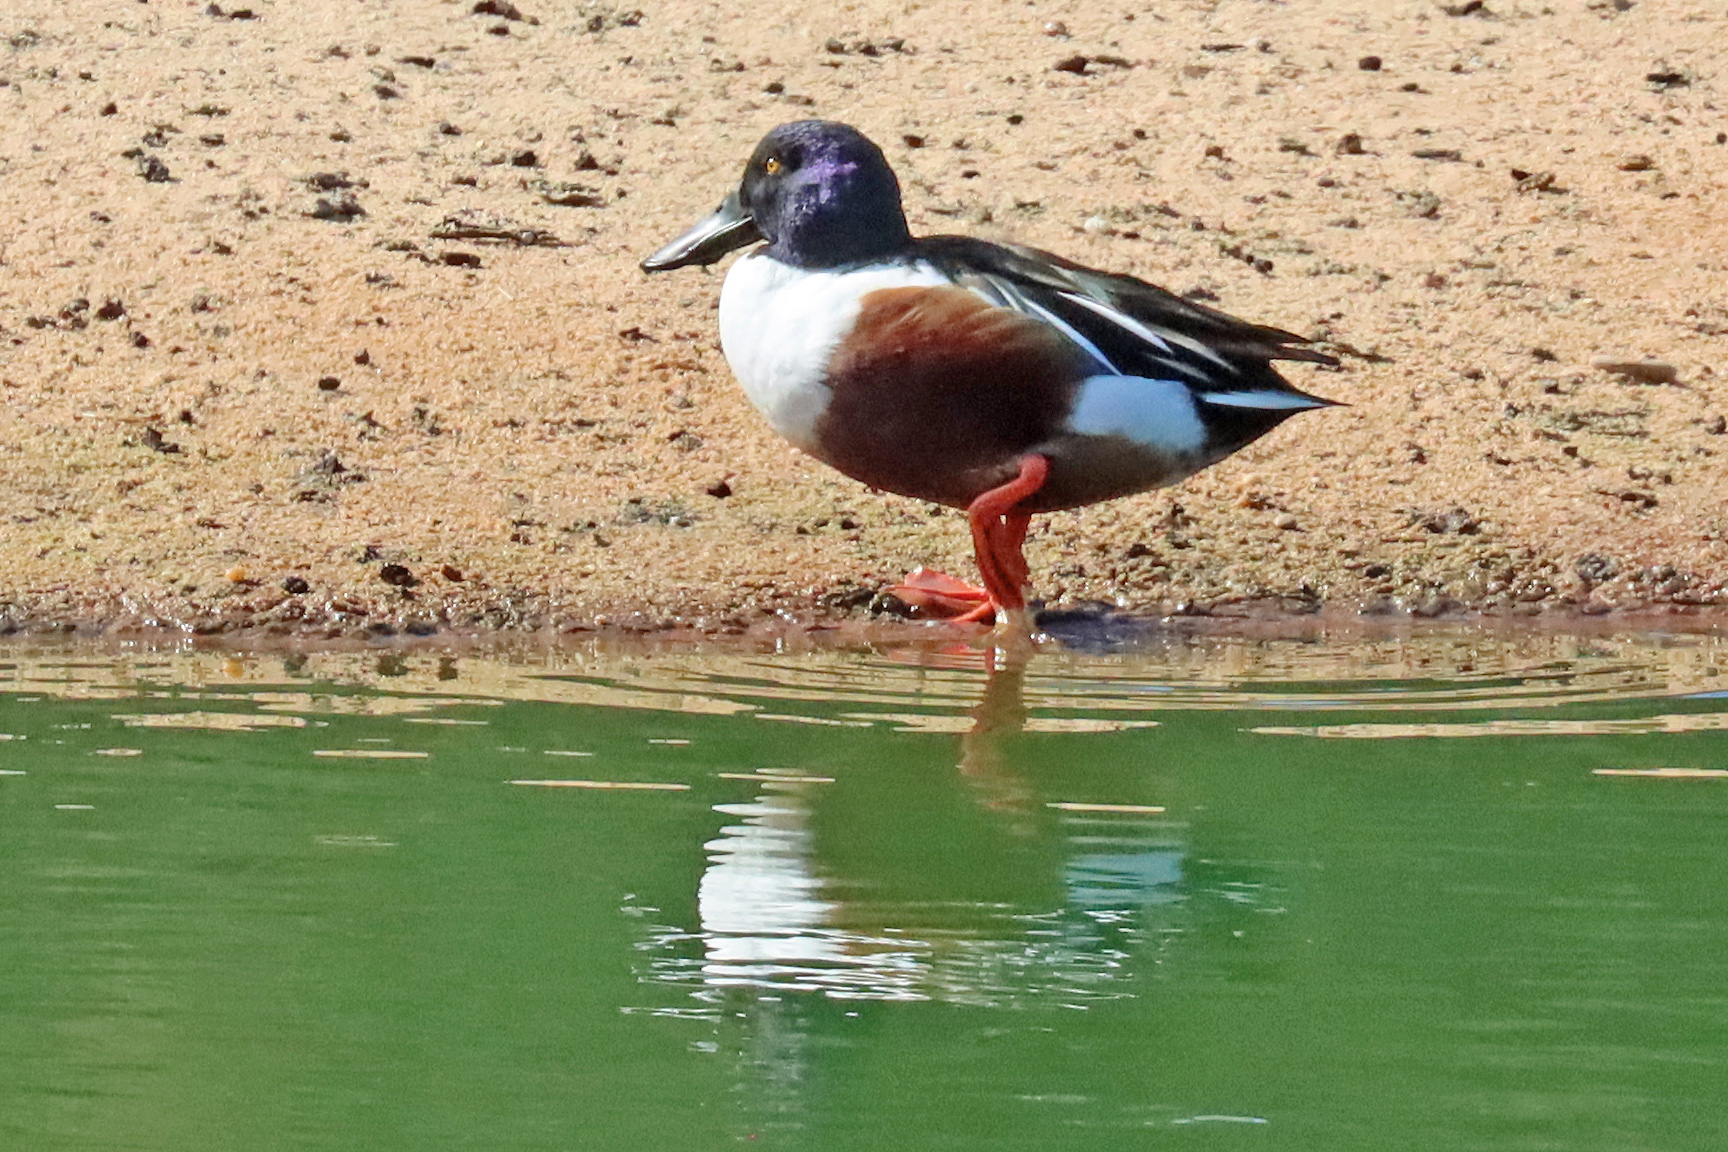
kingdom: Animalia
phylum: Chordata
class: Aves
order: Anseriformes
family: Anatidae
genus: Spatula
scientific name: Spatula clypeata
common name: Northern shoveler
